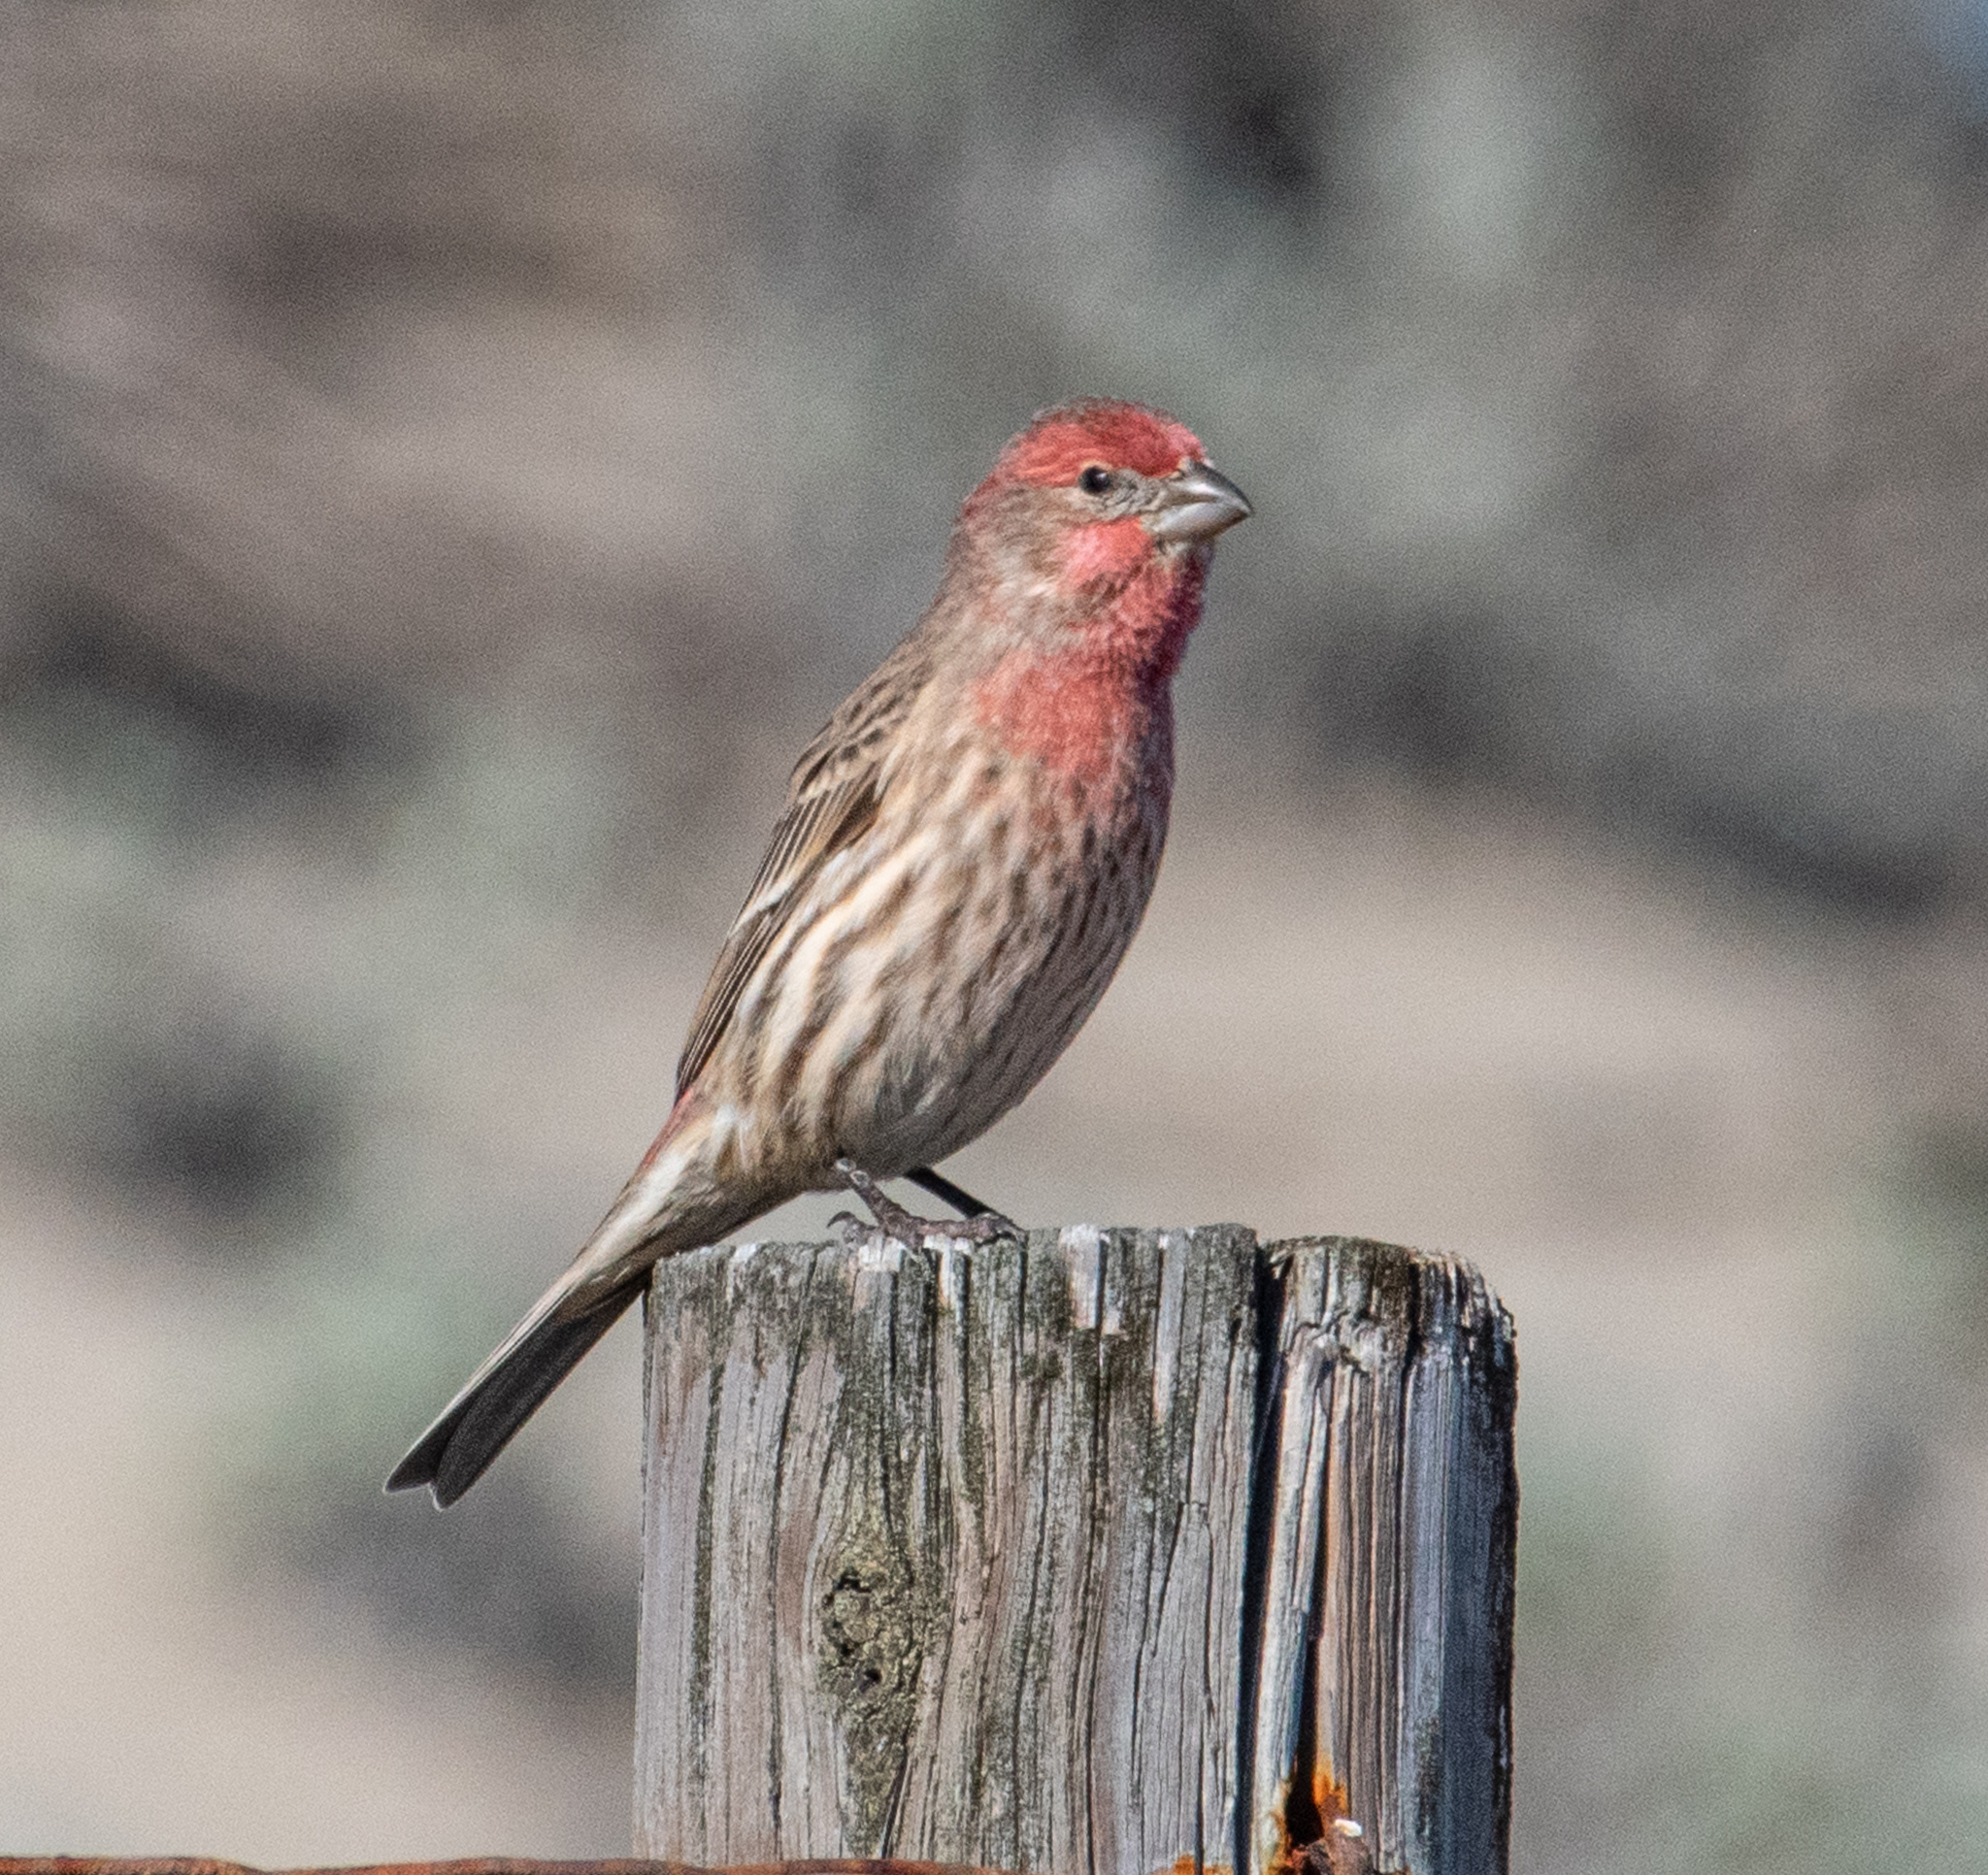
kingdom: Animalia
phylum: Chordata
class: Aves
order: Passeriformes
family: Fringillidae
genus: Haemorhous
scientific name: Haemorhous mexicanus
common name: House finch
